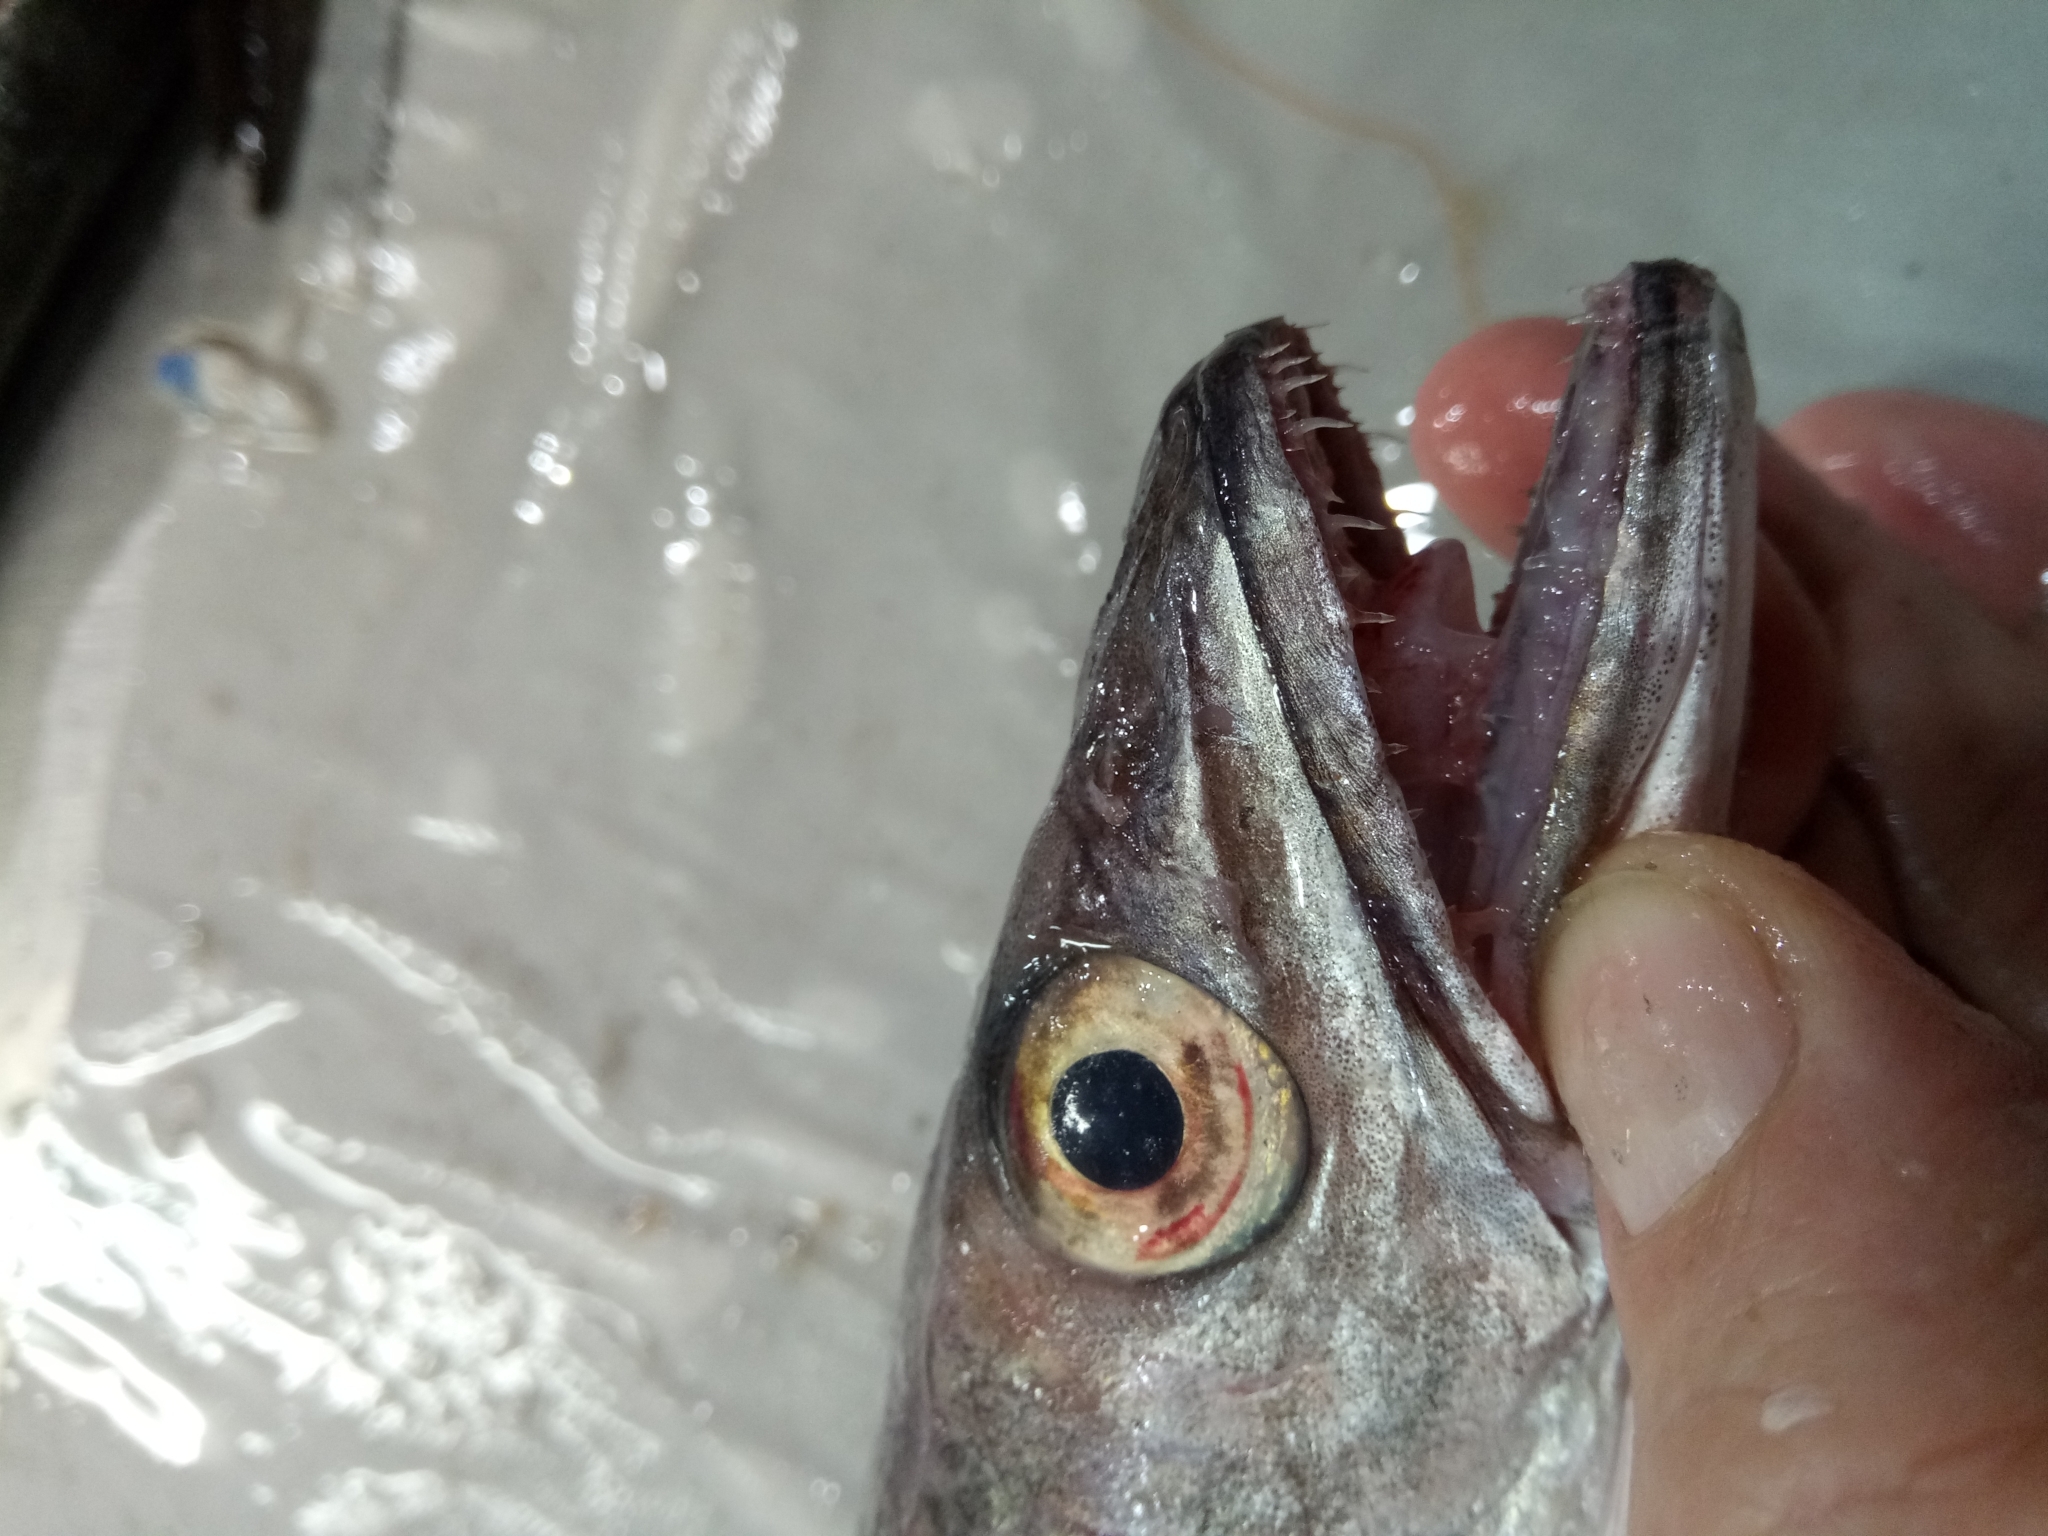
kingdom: Animalia
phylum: Chordata
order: Gadiformes
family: Merlucciidae
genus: Merluccius
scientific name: Merluccius merluccius
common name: European hake
